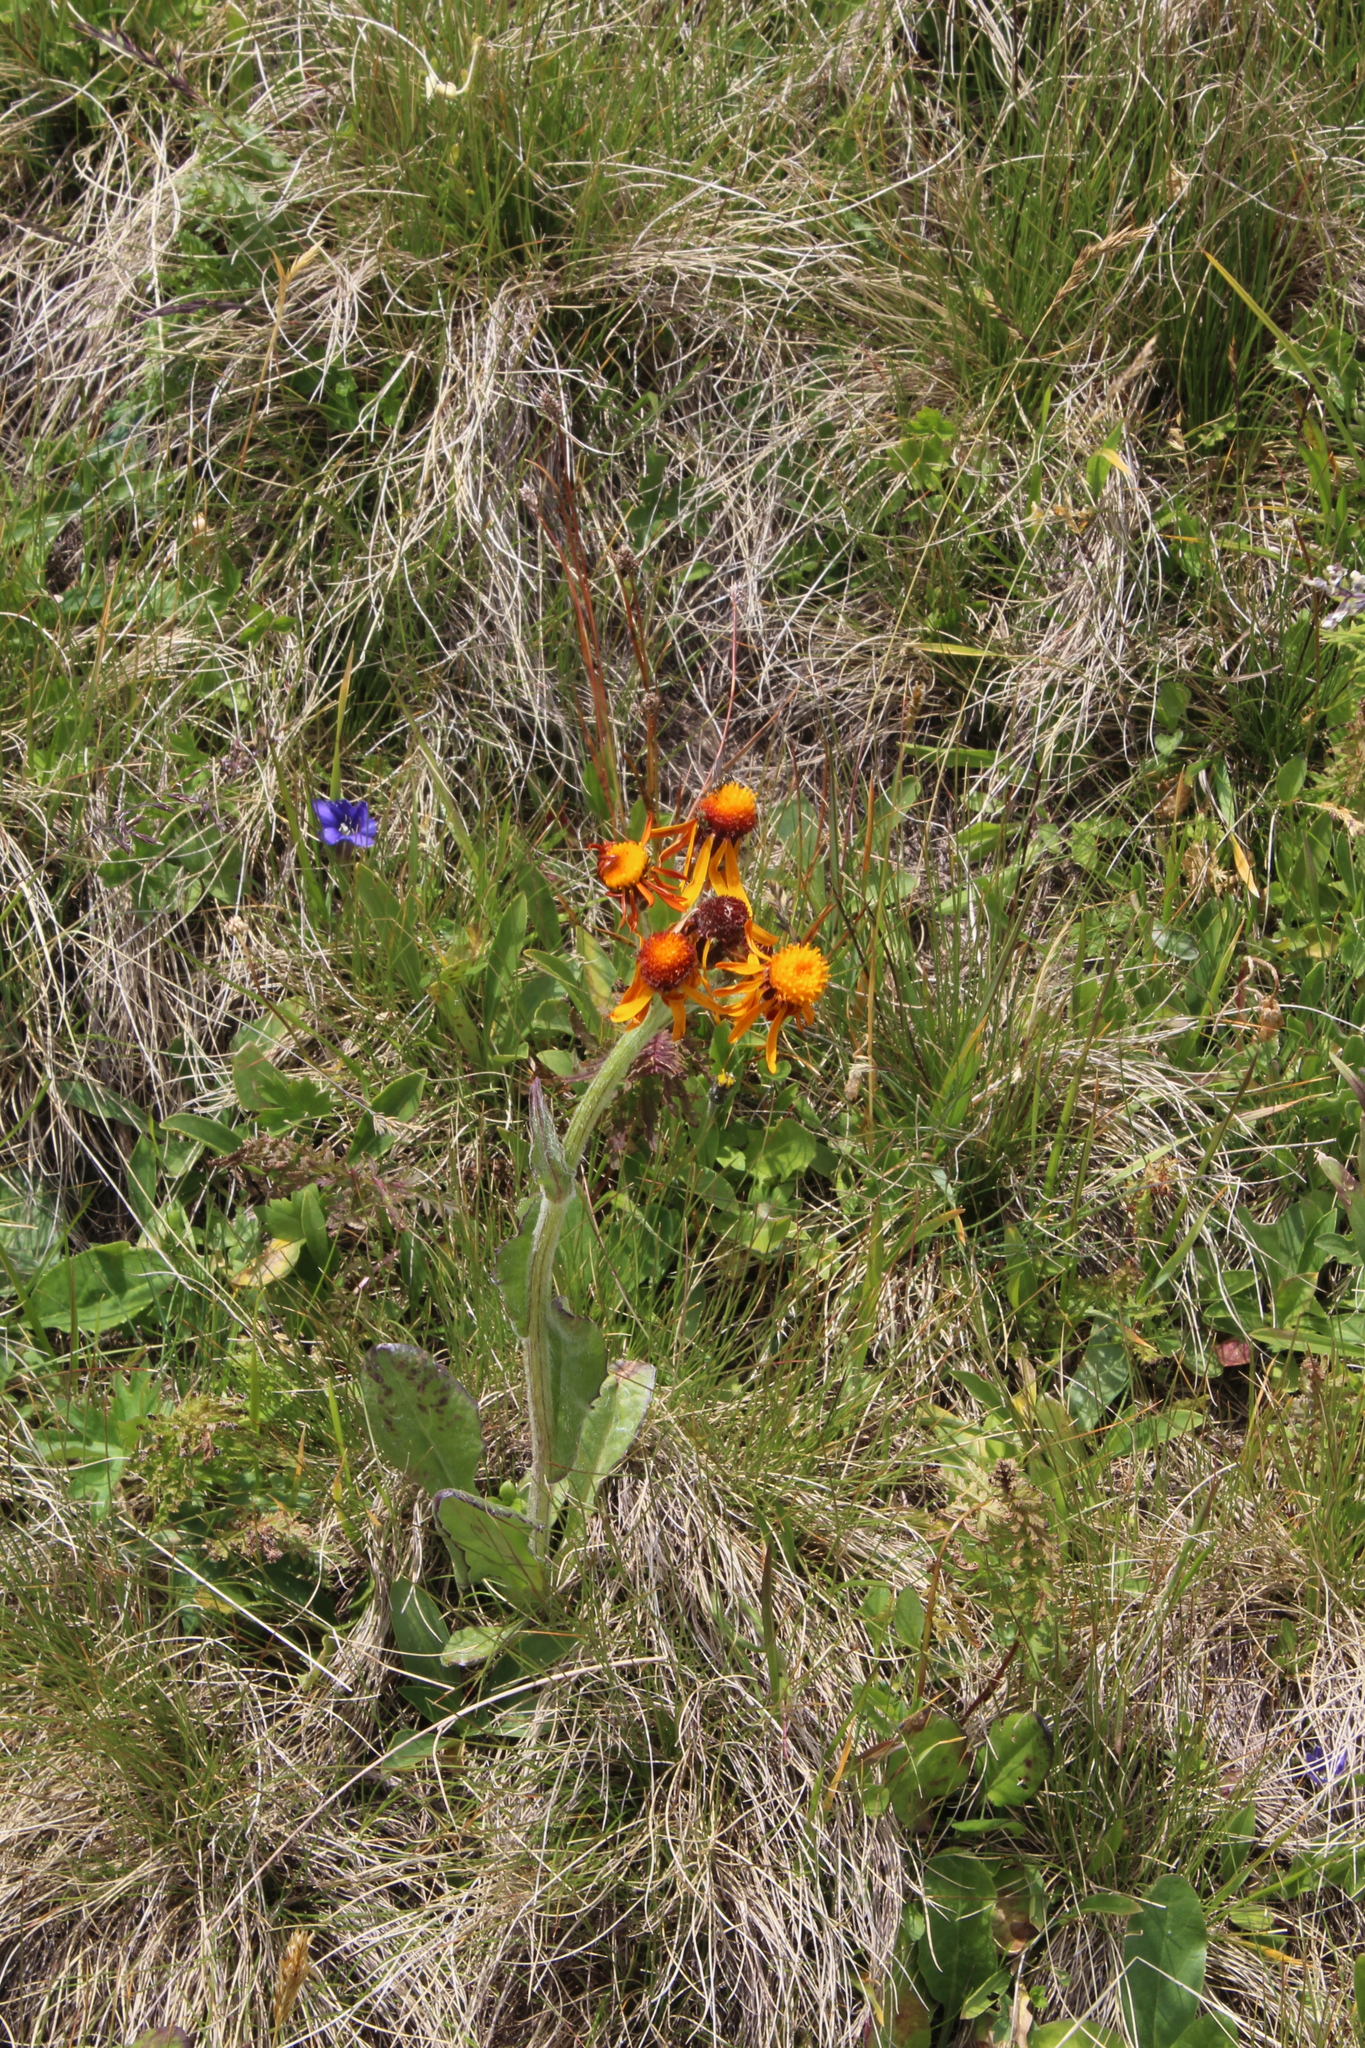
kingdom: Plantae
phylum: Tracheophyta
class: Magnoliopsida
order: Asterales
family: Asteraceae
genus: Tephroseris
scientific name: Tephroseris integrifolia
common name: Field fleawort
